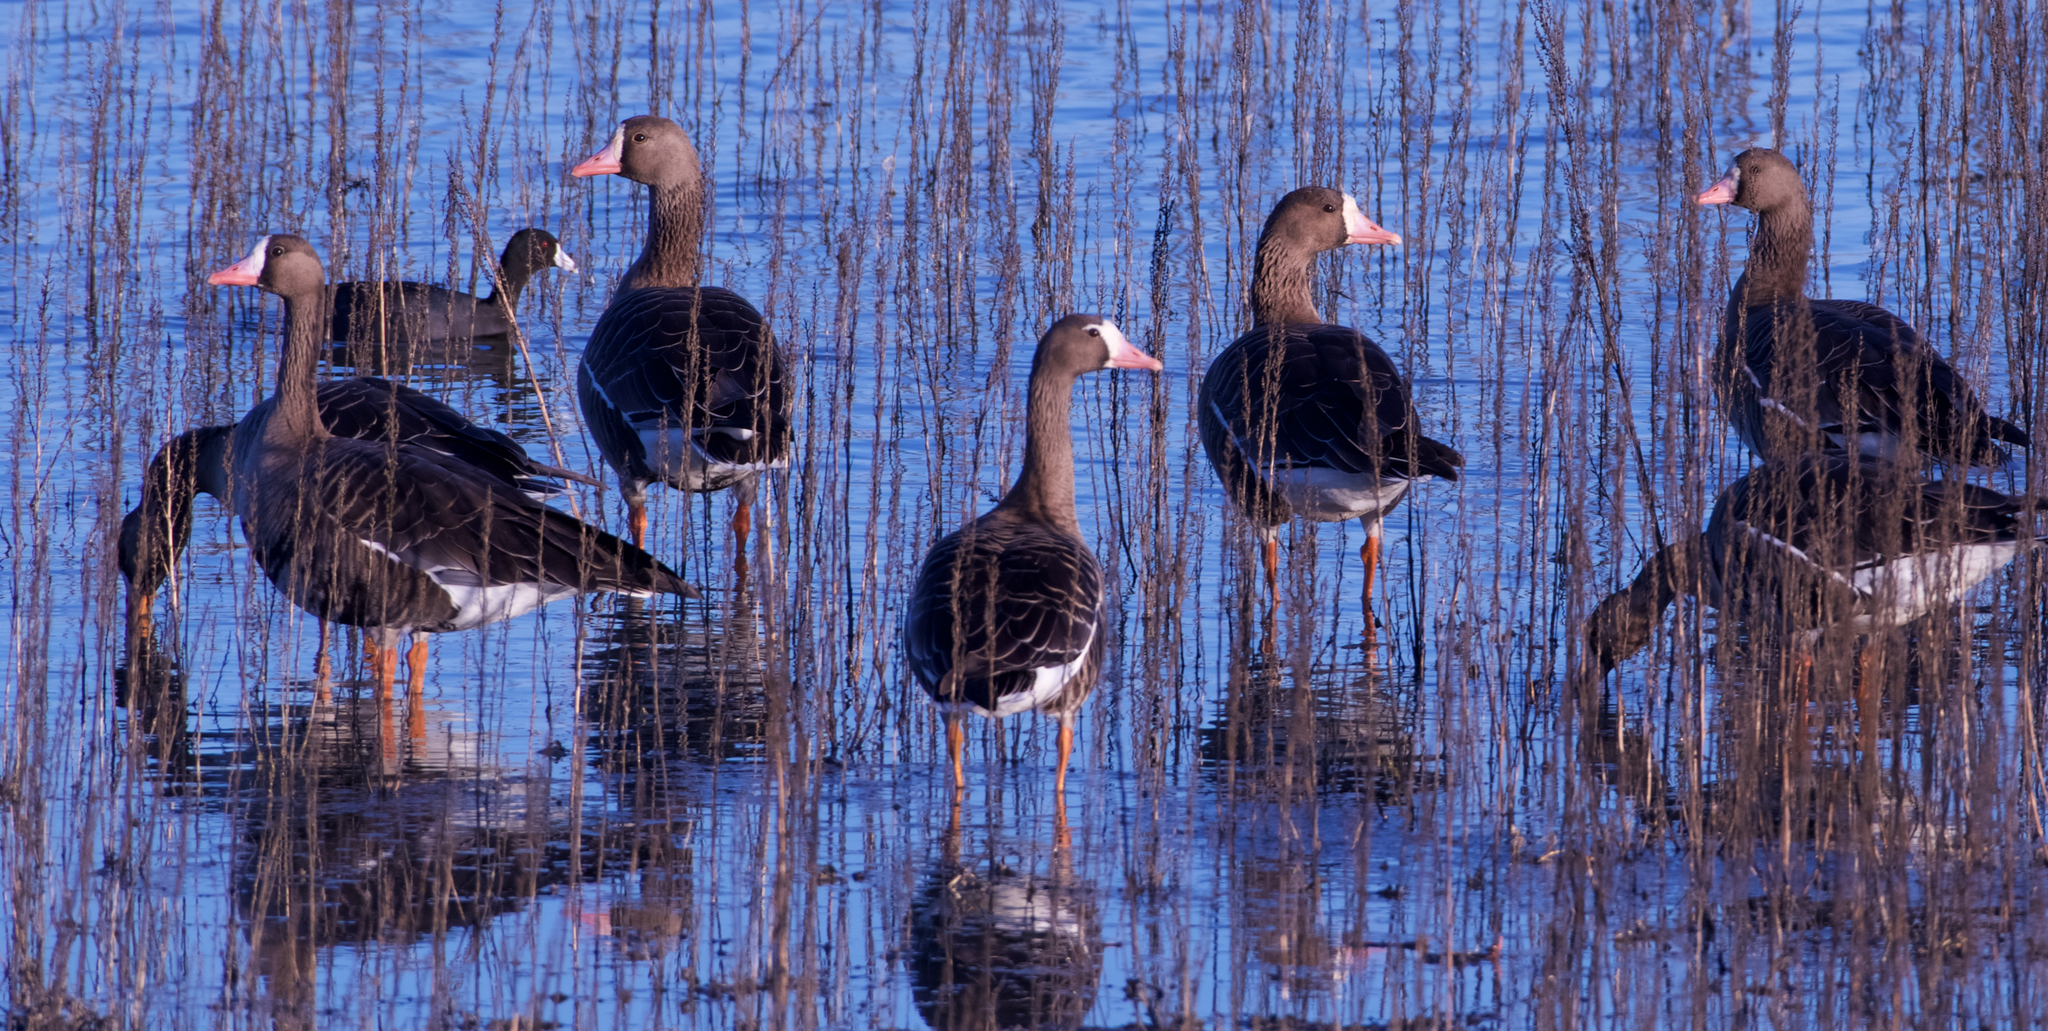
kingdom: Animalia
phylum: Chordata
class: Aves
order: Anseriformes
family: Anatidae
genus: Anser
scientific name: Anser albifrons
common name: Greater white-fronted goose
